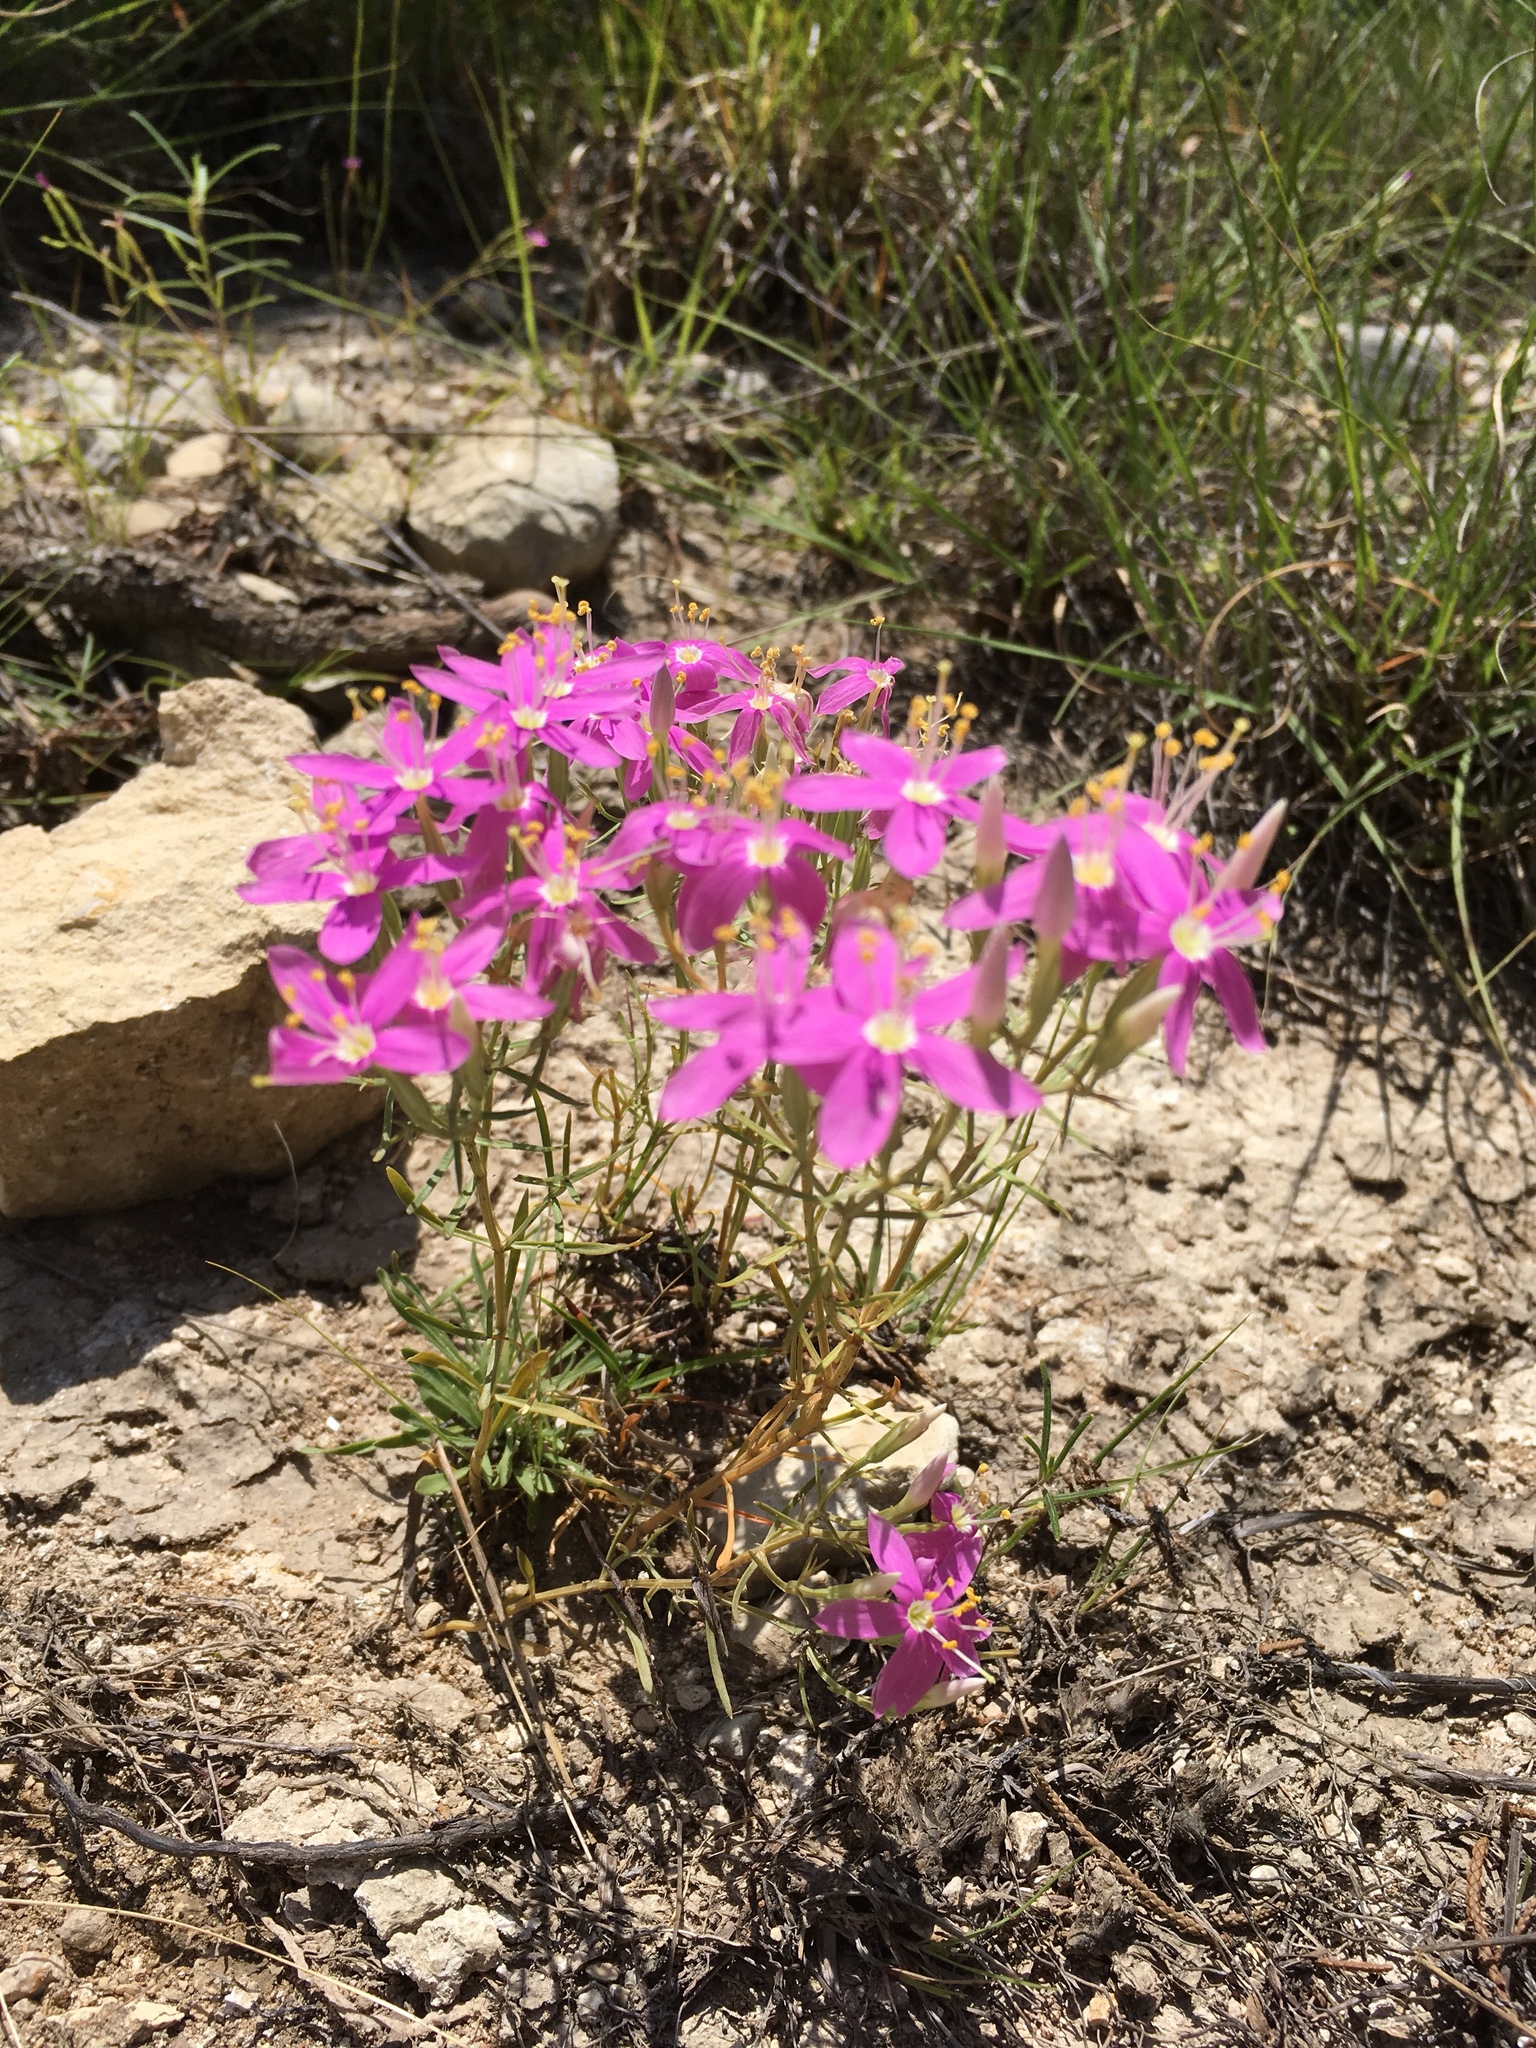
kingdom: Plantae
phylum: Tracheophyta
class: Magnoliopsida
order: Gentianales
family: Gentianaceae
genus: Zeltnera
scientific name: Zeltnera beyrichii
